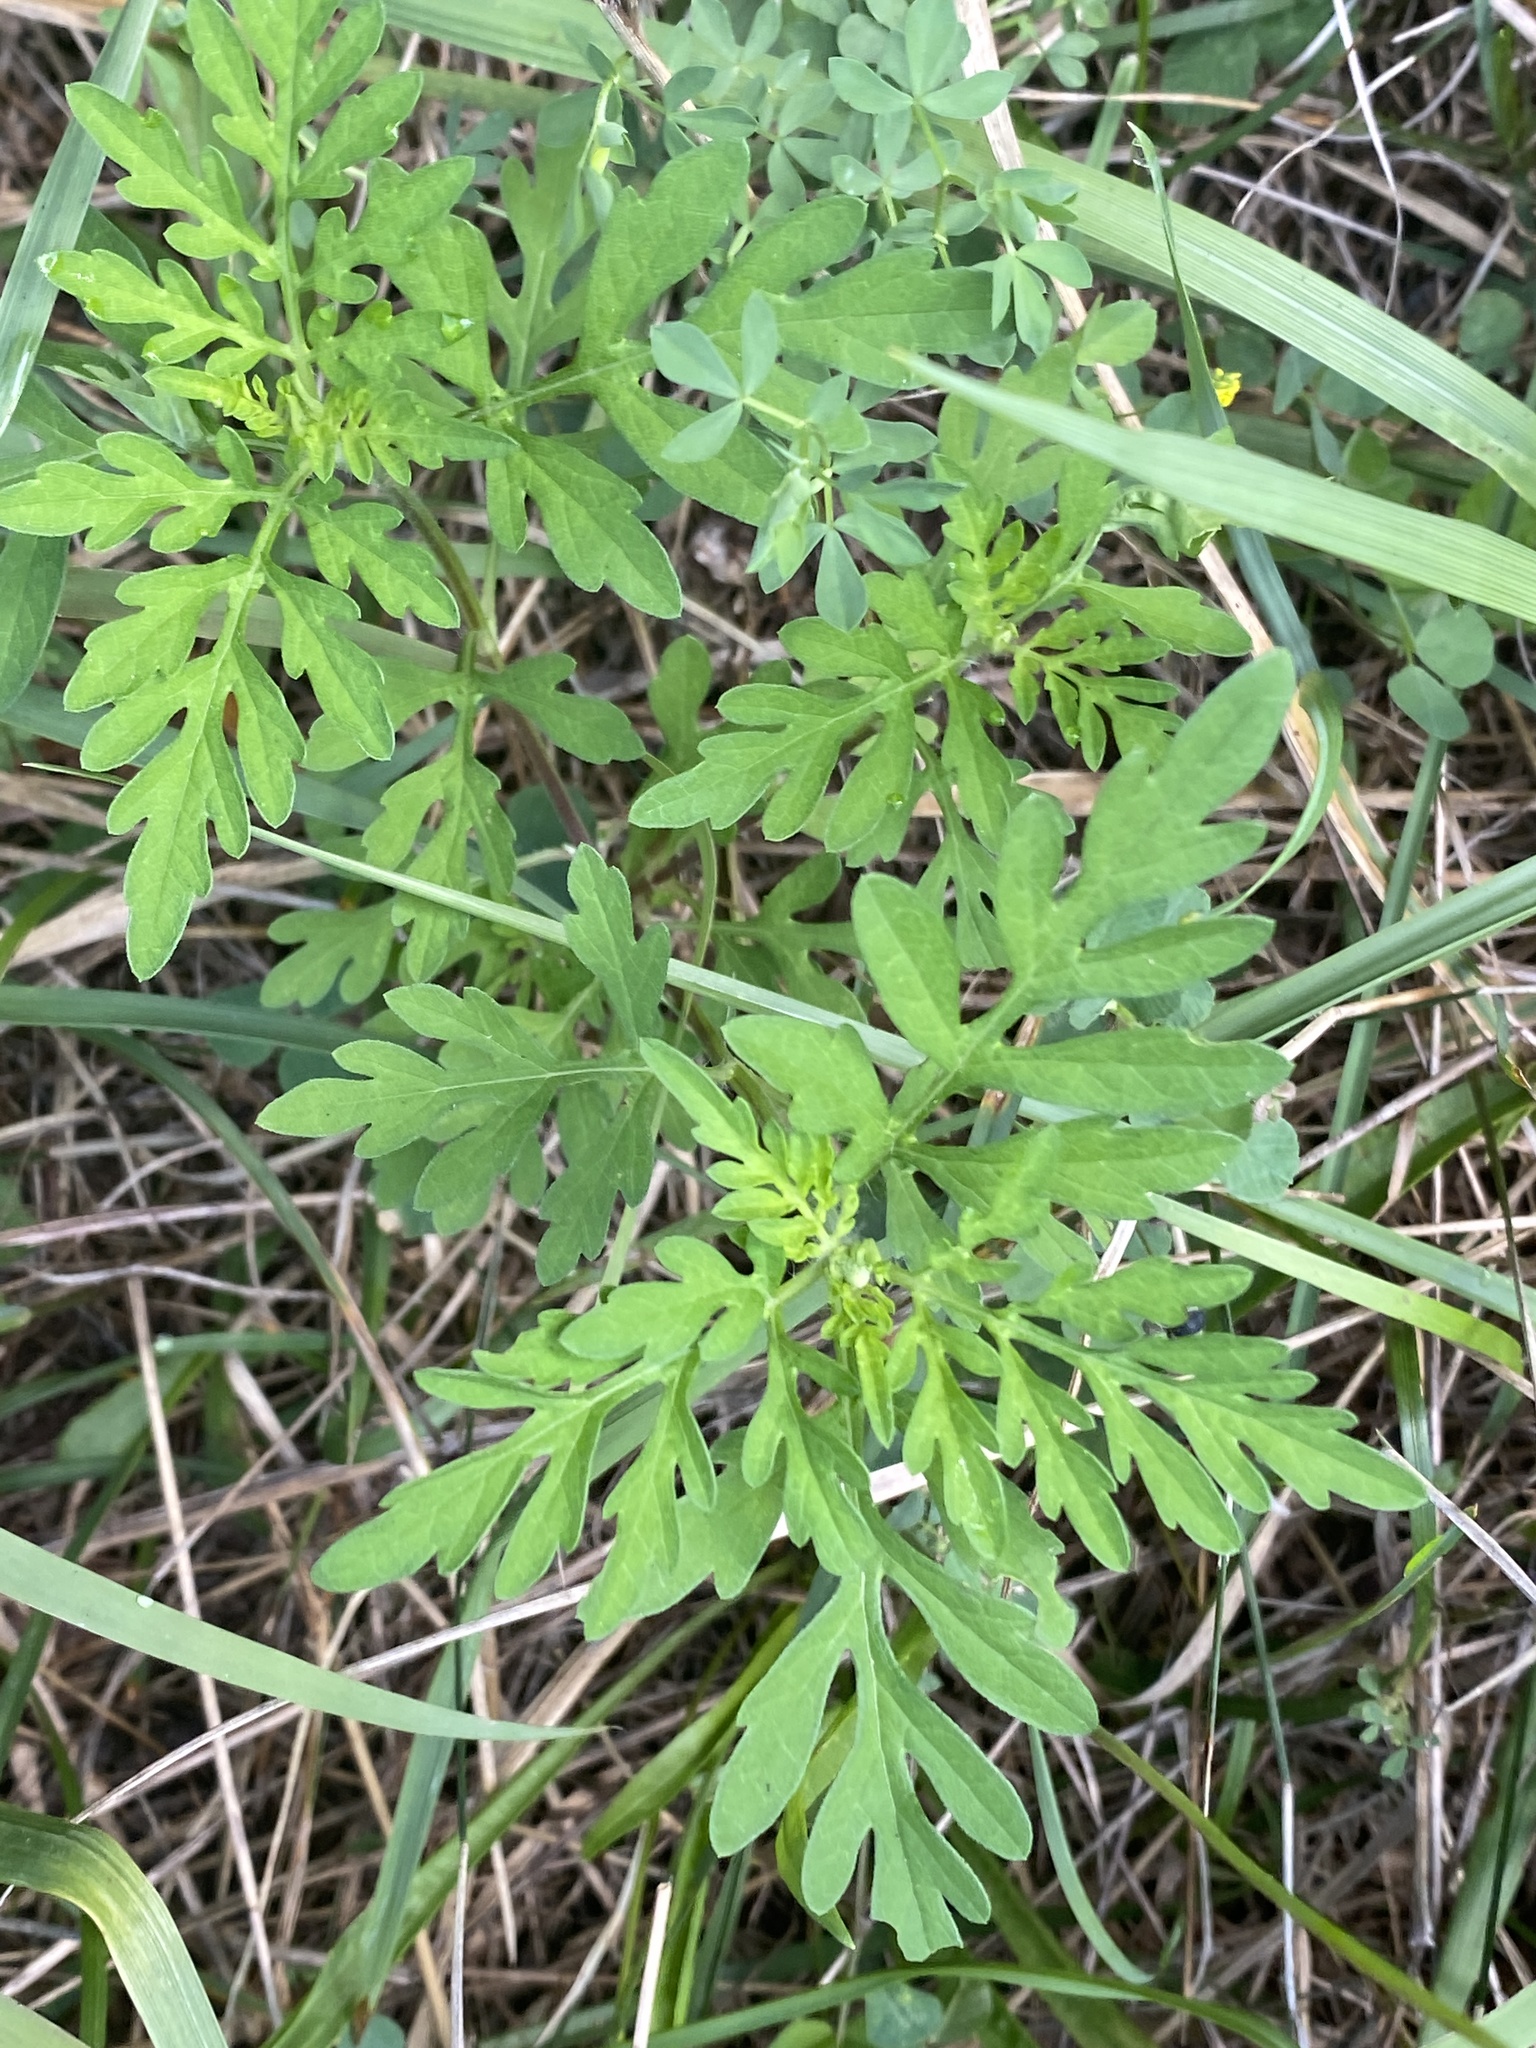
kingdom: Plantae
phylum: Tracheophyta
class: Magnoliopsida
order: Asterales
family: Asteraceae
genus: Ambrosia
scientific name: Ambrosia artemisiifolia
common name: Annual ragweed
